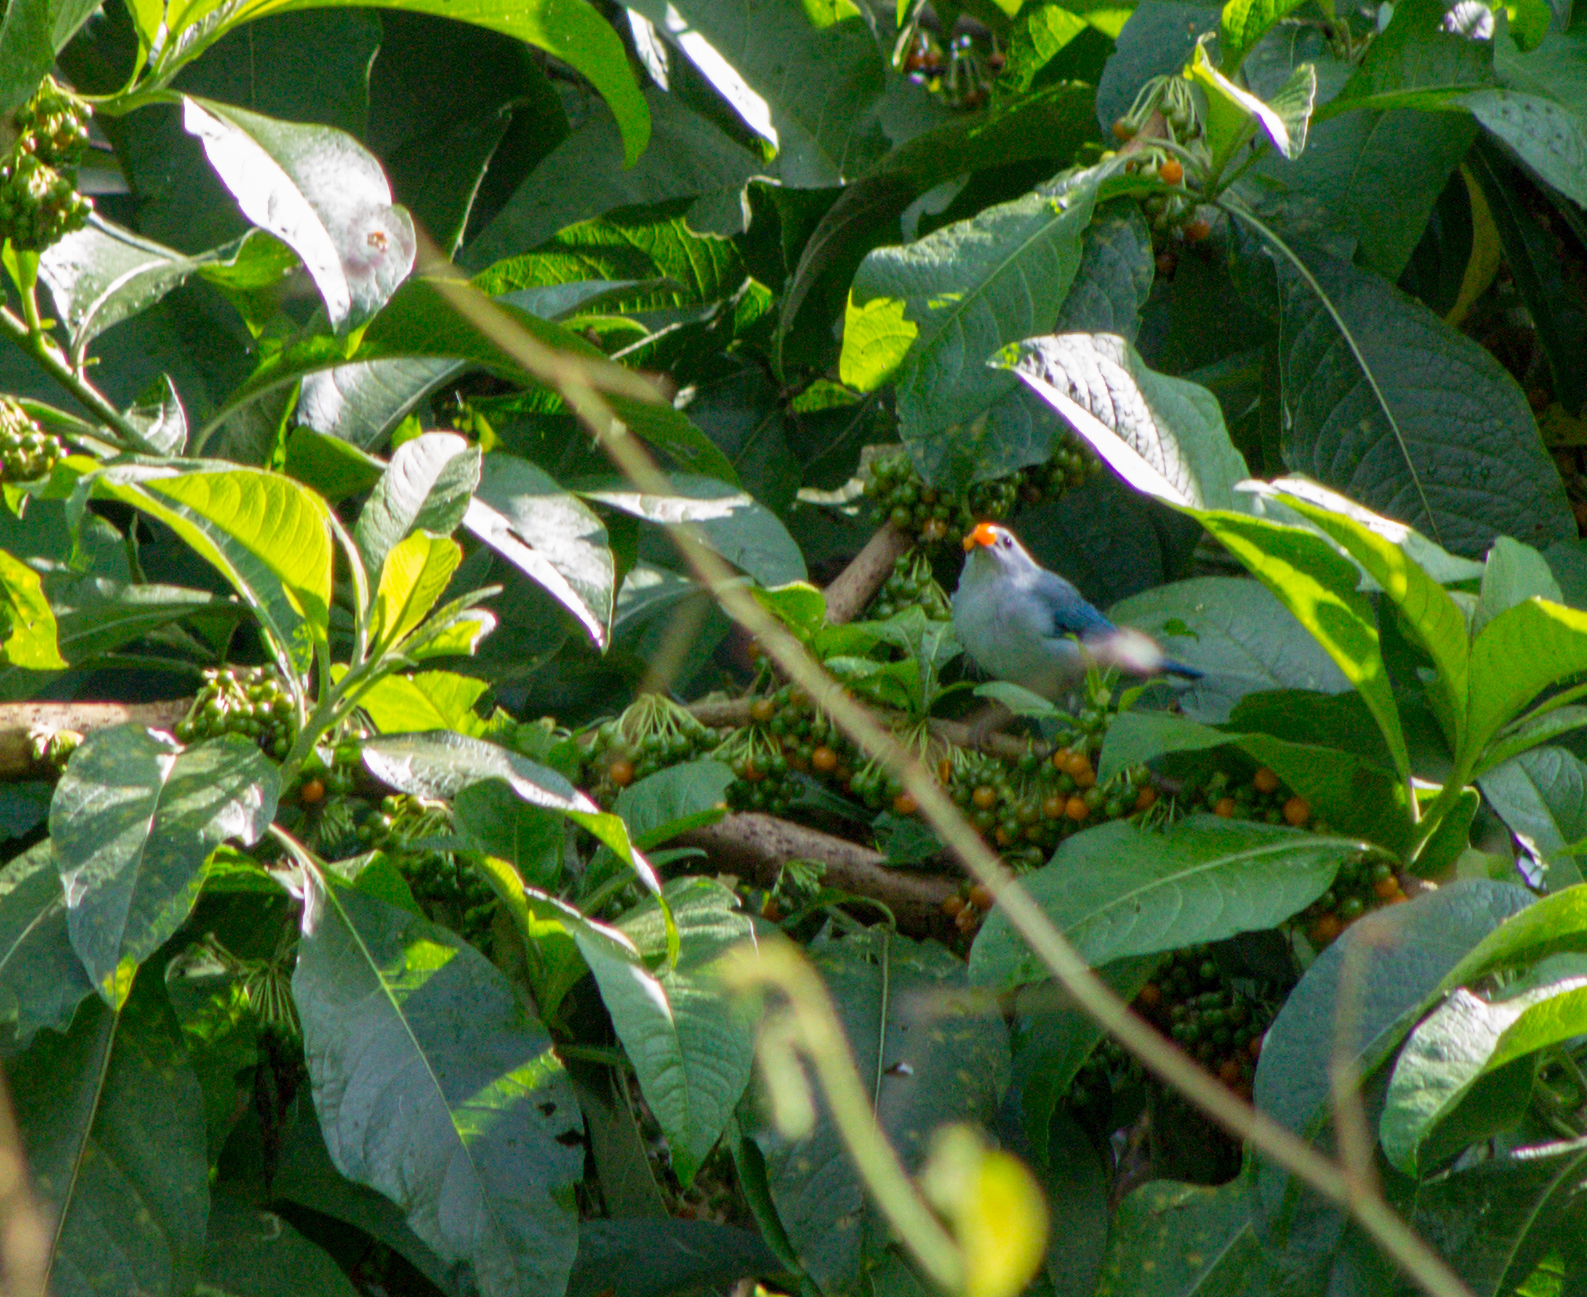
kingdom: Animalia
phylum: Chordata
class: Aves
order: Passeriformes
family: Thraupidae
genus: Thraupis
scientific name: Thraupis episcopus
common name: Blue-grey tanager
